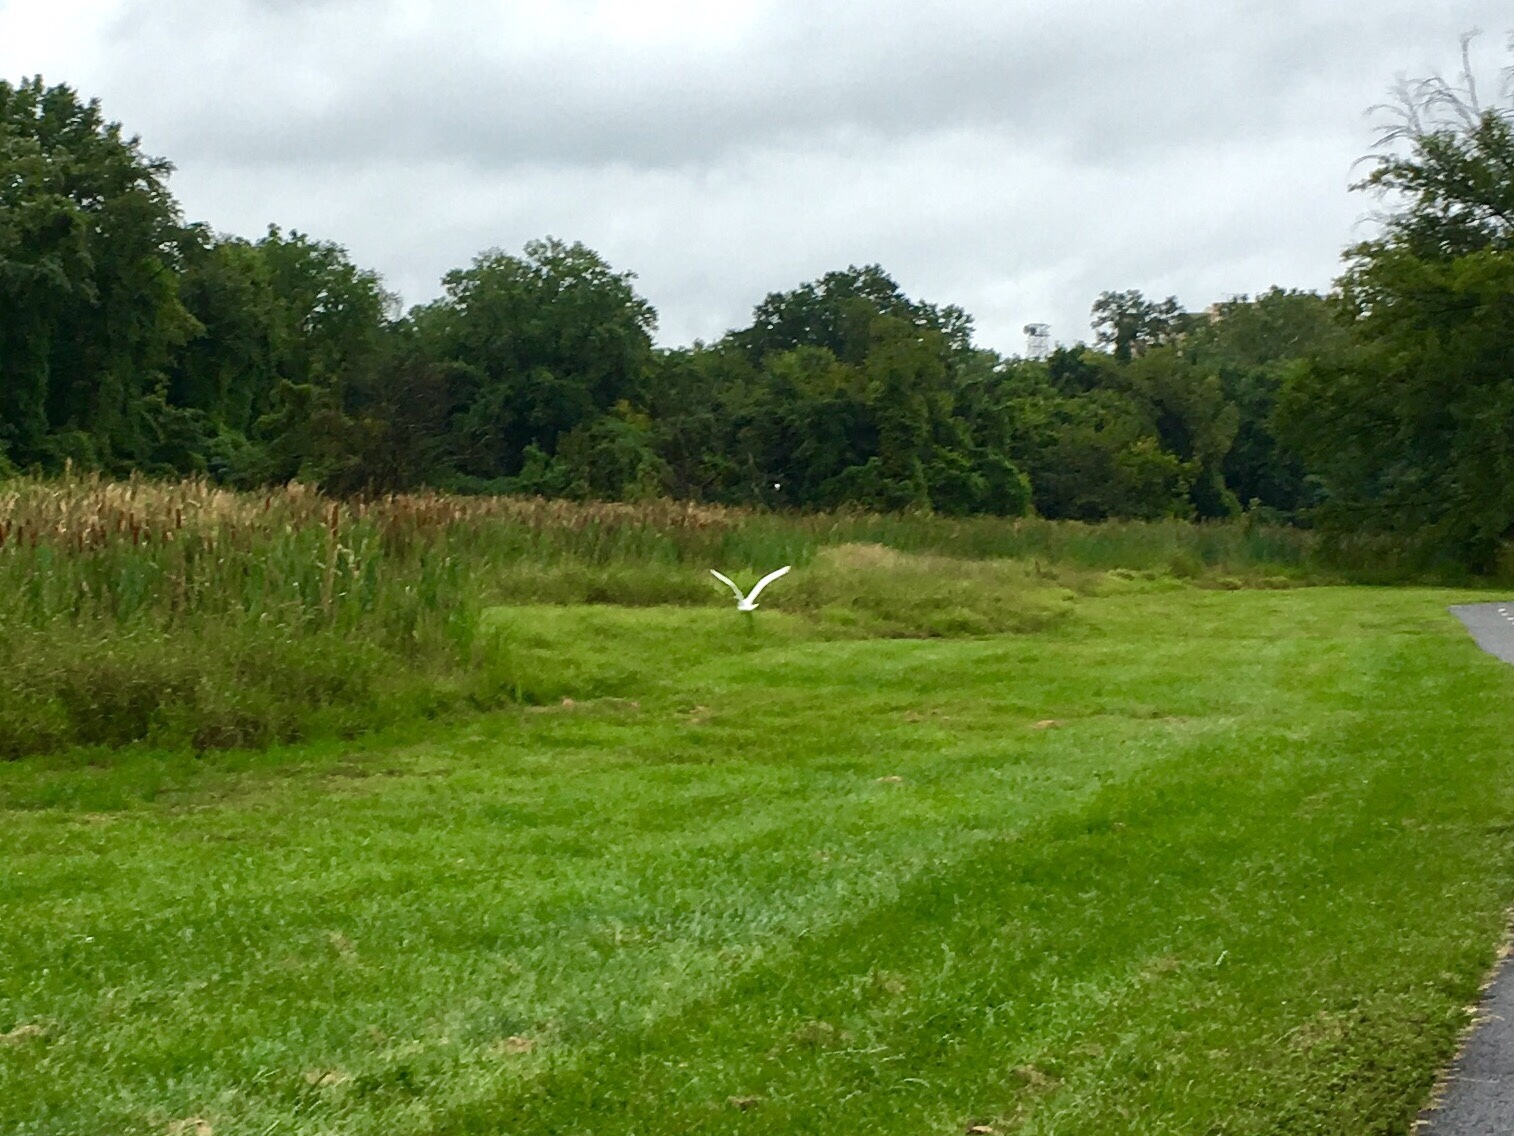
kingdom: Animalia
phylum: Chordata
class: Aves
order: Pelecaniformes
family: Ardeidae
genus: Egretta
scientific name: Egretta thula
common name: Snowy egret
